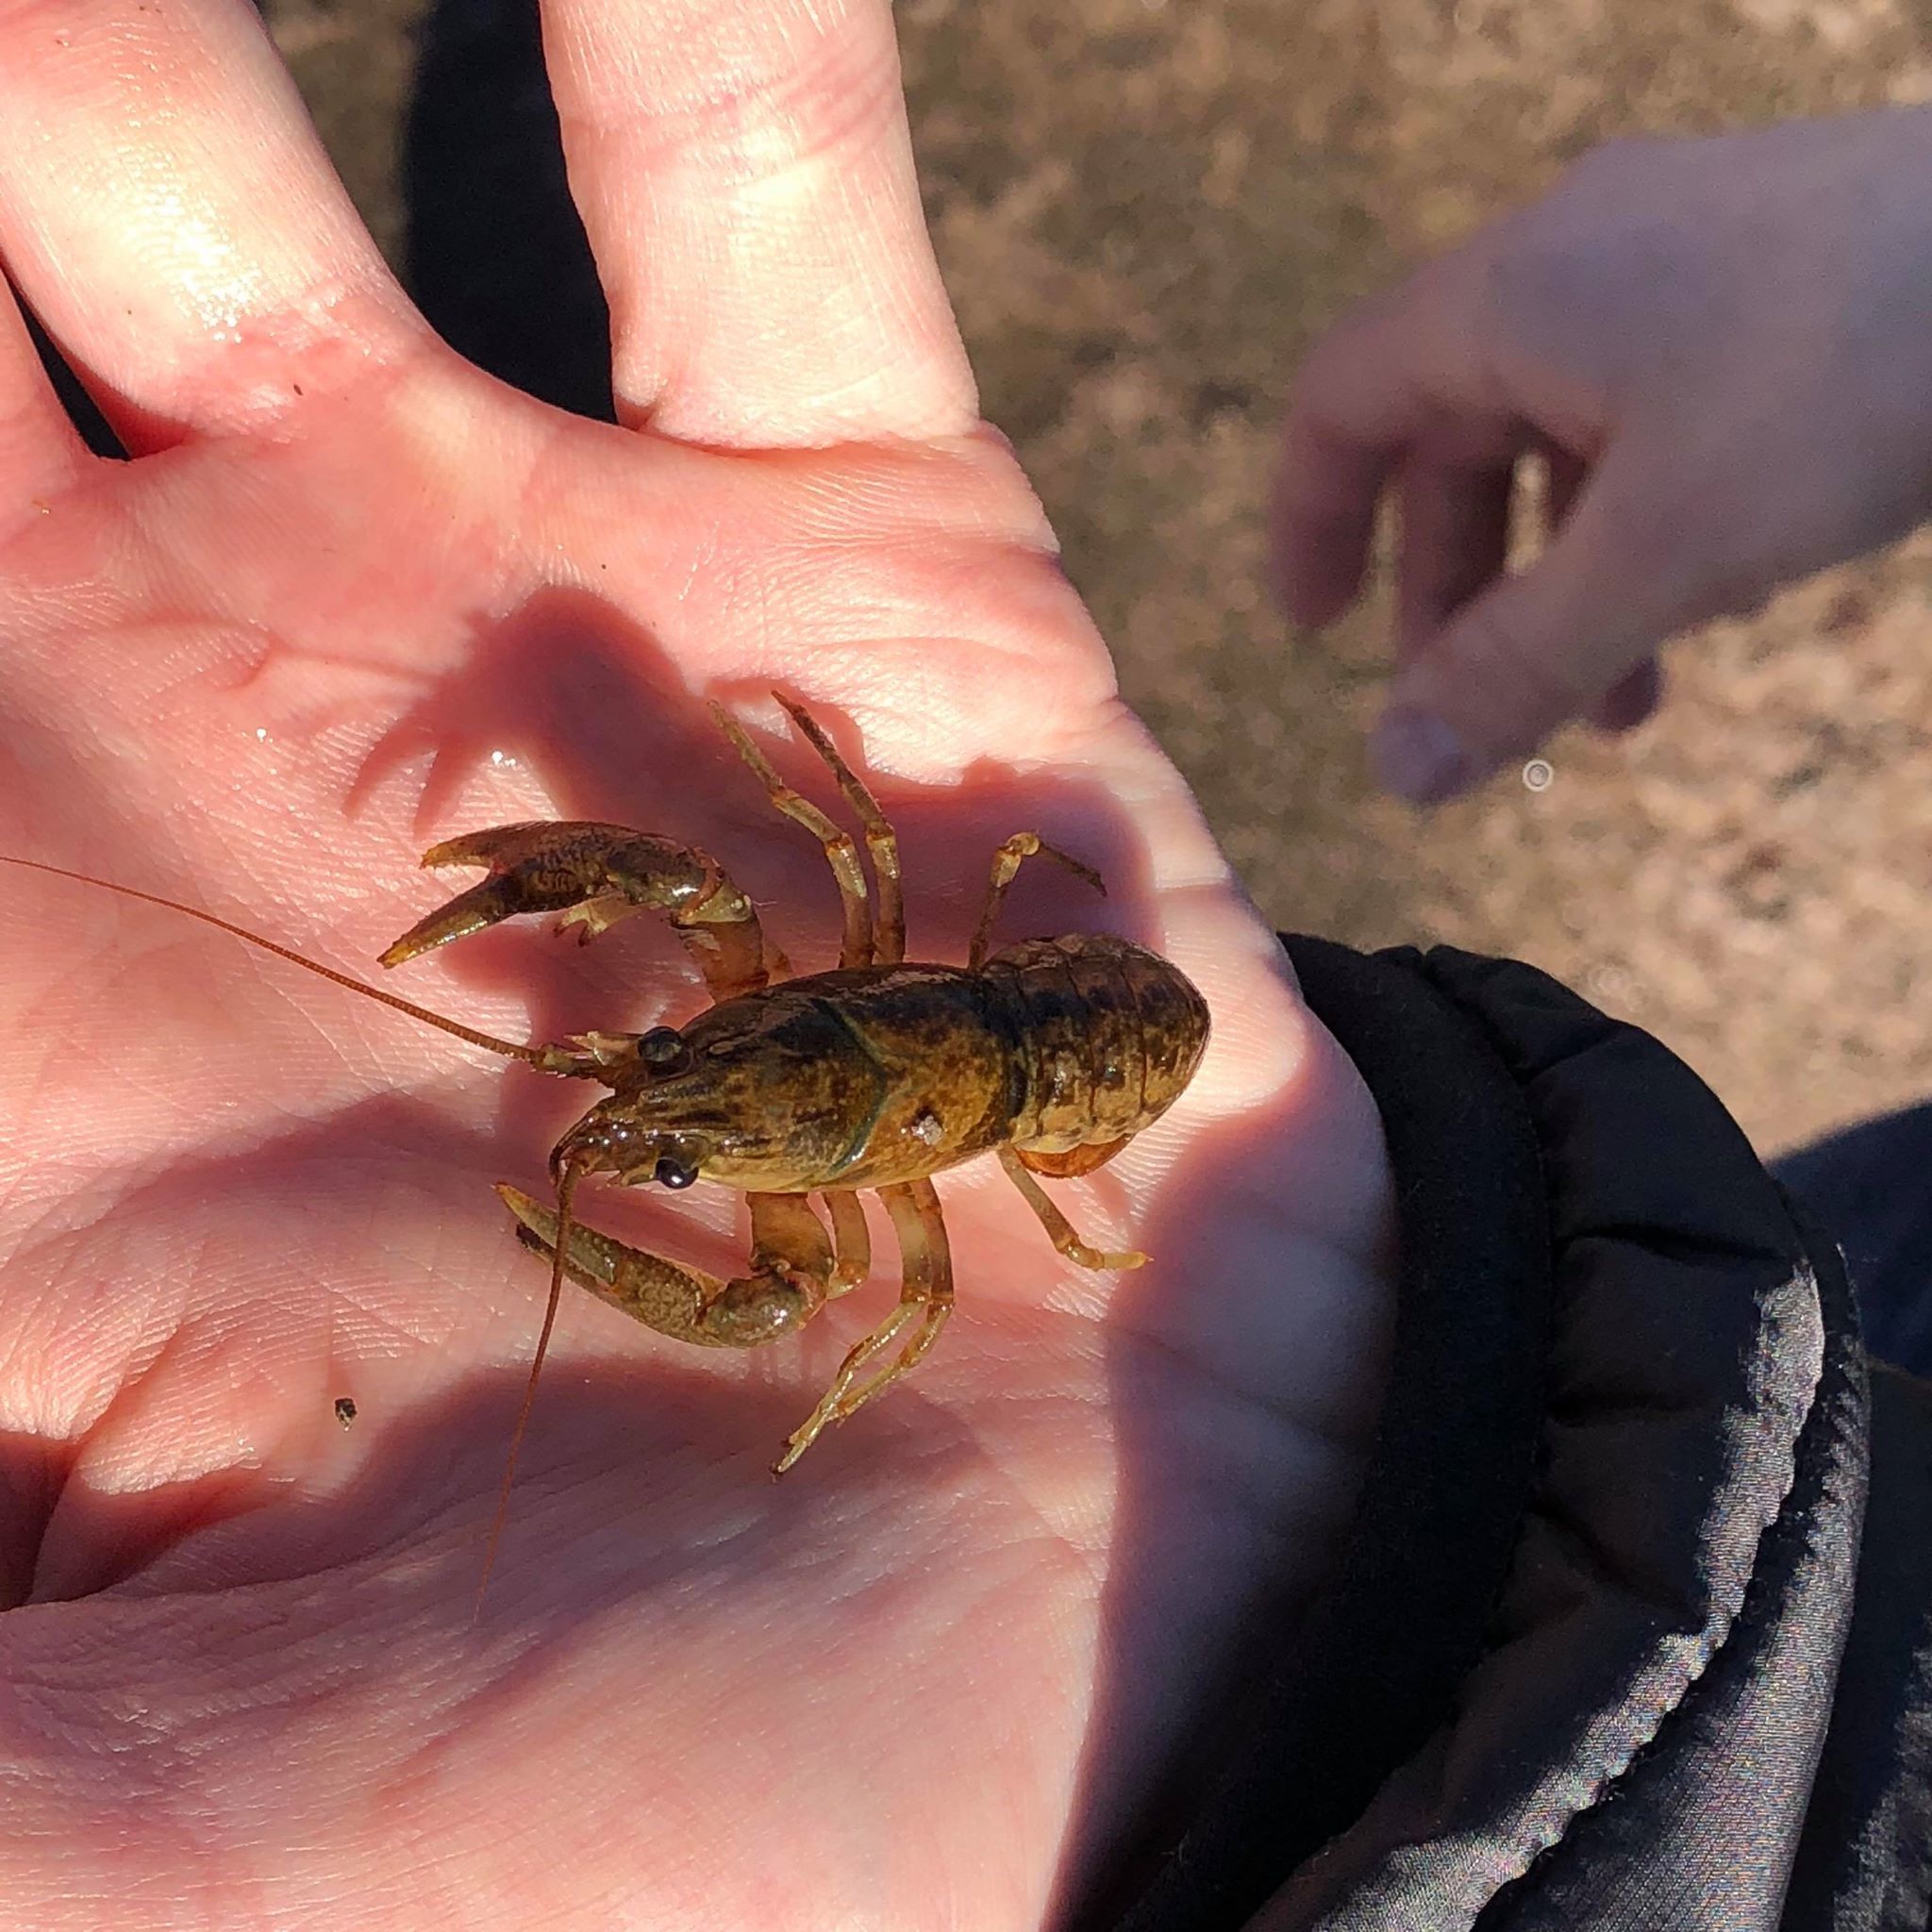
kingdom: Animalia
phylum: Arthropoda
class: Malacostraca
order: Decapoda
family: Cambaridae
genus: Faxonius
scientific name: Faxonius propinquus
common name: Northern clearwater crayfish
